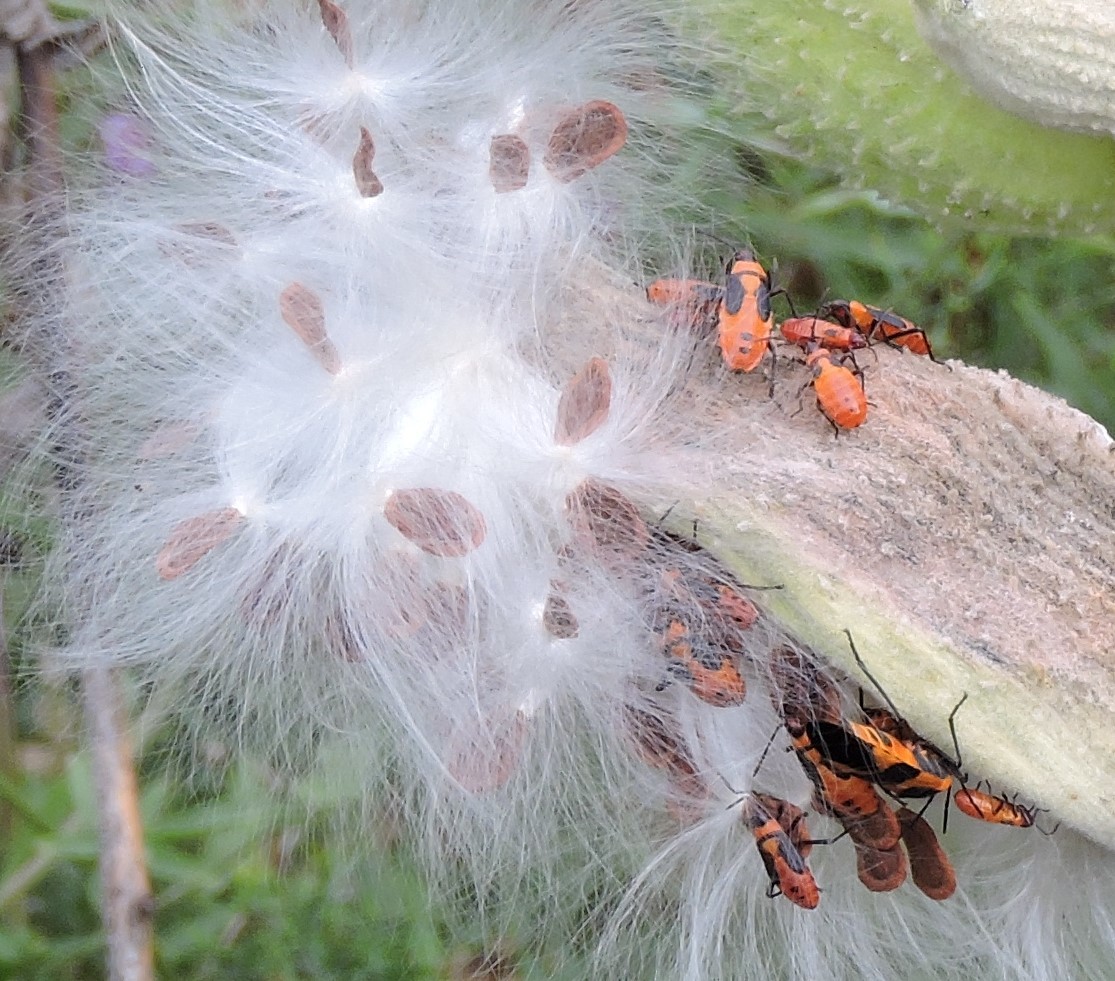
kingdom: Animalia
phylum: Arthropoda
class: Insecta
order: Hemiptera
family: Lygaeidae
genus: Oncopeltus
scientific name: Oncopeltus fasciatus
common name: Large milkweed bug
